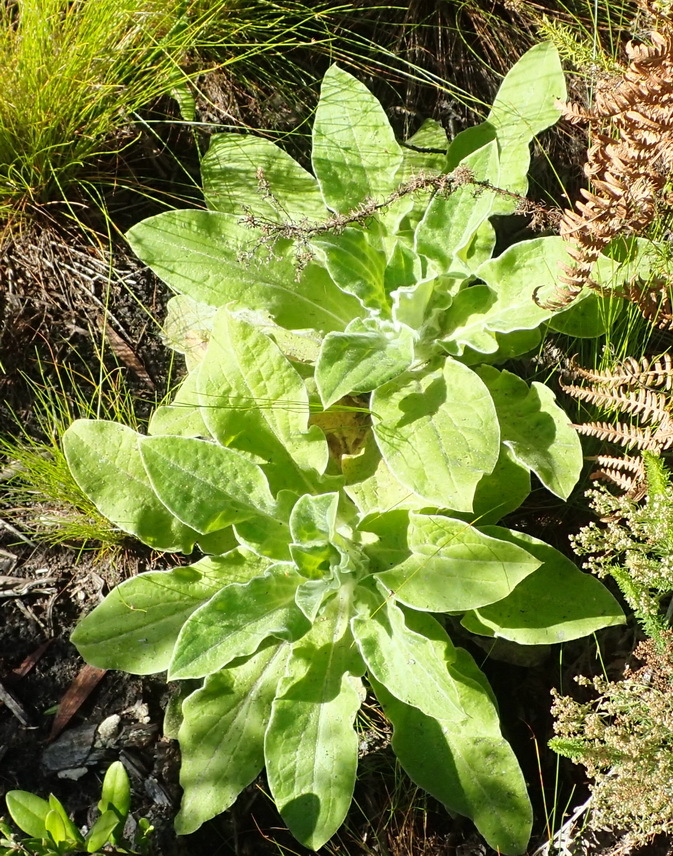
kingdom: Plantae
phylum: Tracheophyta
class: Magnoliopsida
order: Asterales
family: Asteraceae
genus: Helichrysum
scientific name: Helichrysum foetidum
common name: Stinking everlasting
